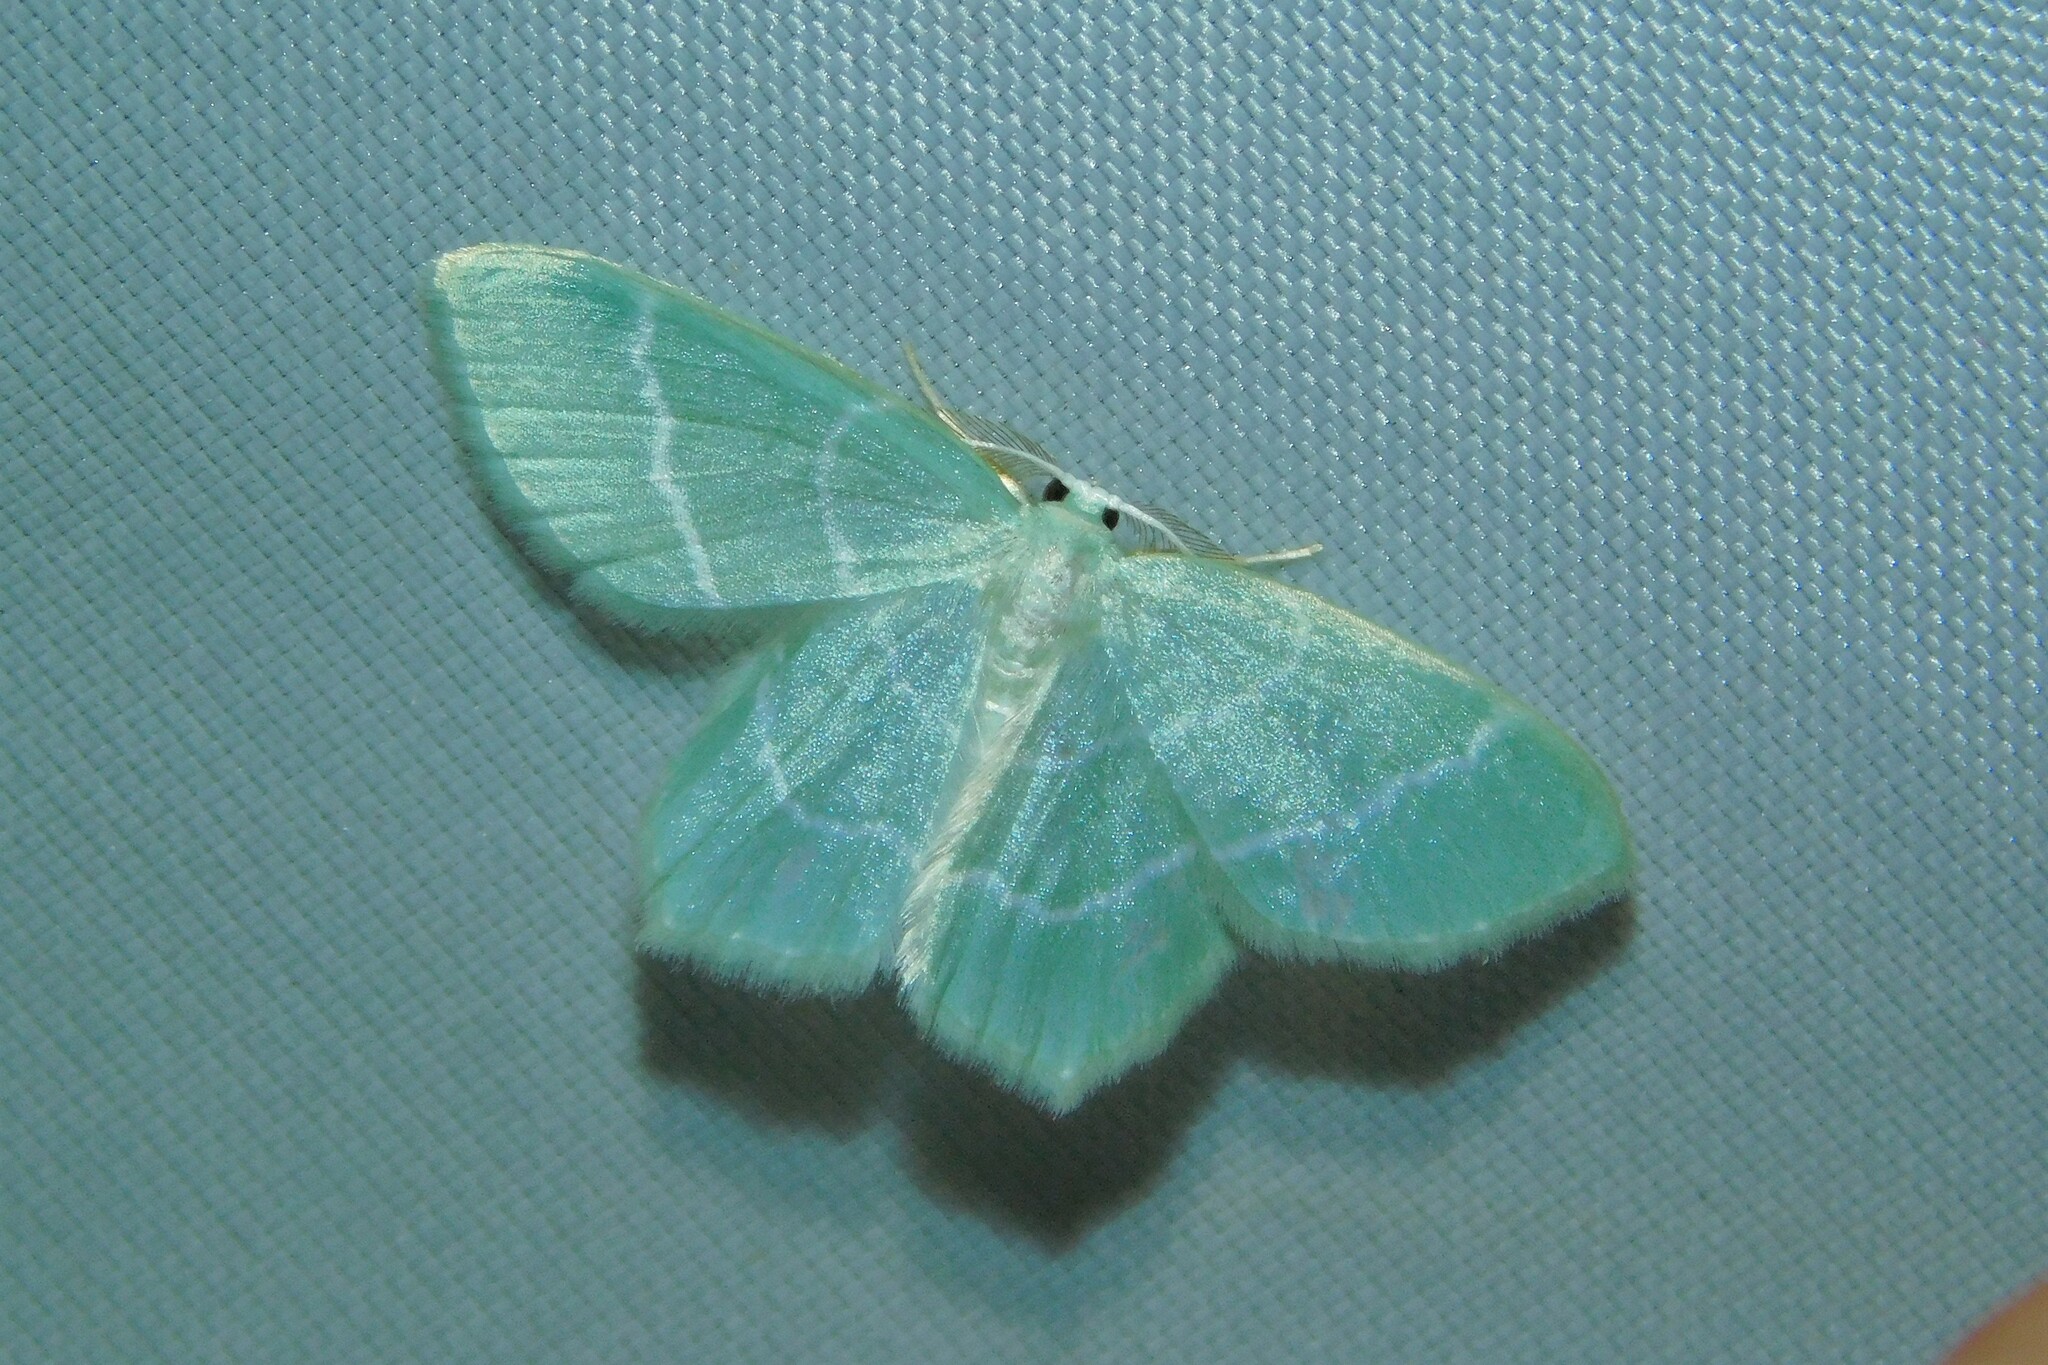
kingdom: Animalia
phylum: Arthropoda
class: Insecta
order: Lepidoptera
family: Geometridae
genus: Jodis
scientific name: Jodis lactearia
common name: Little emerald
